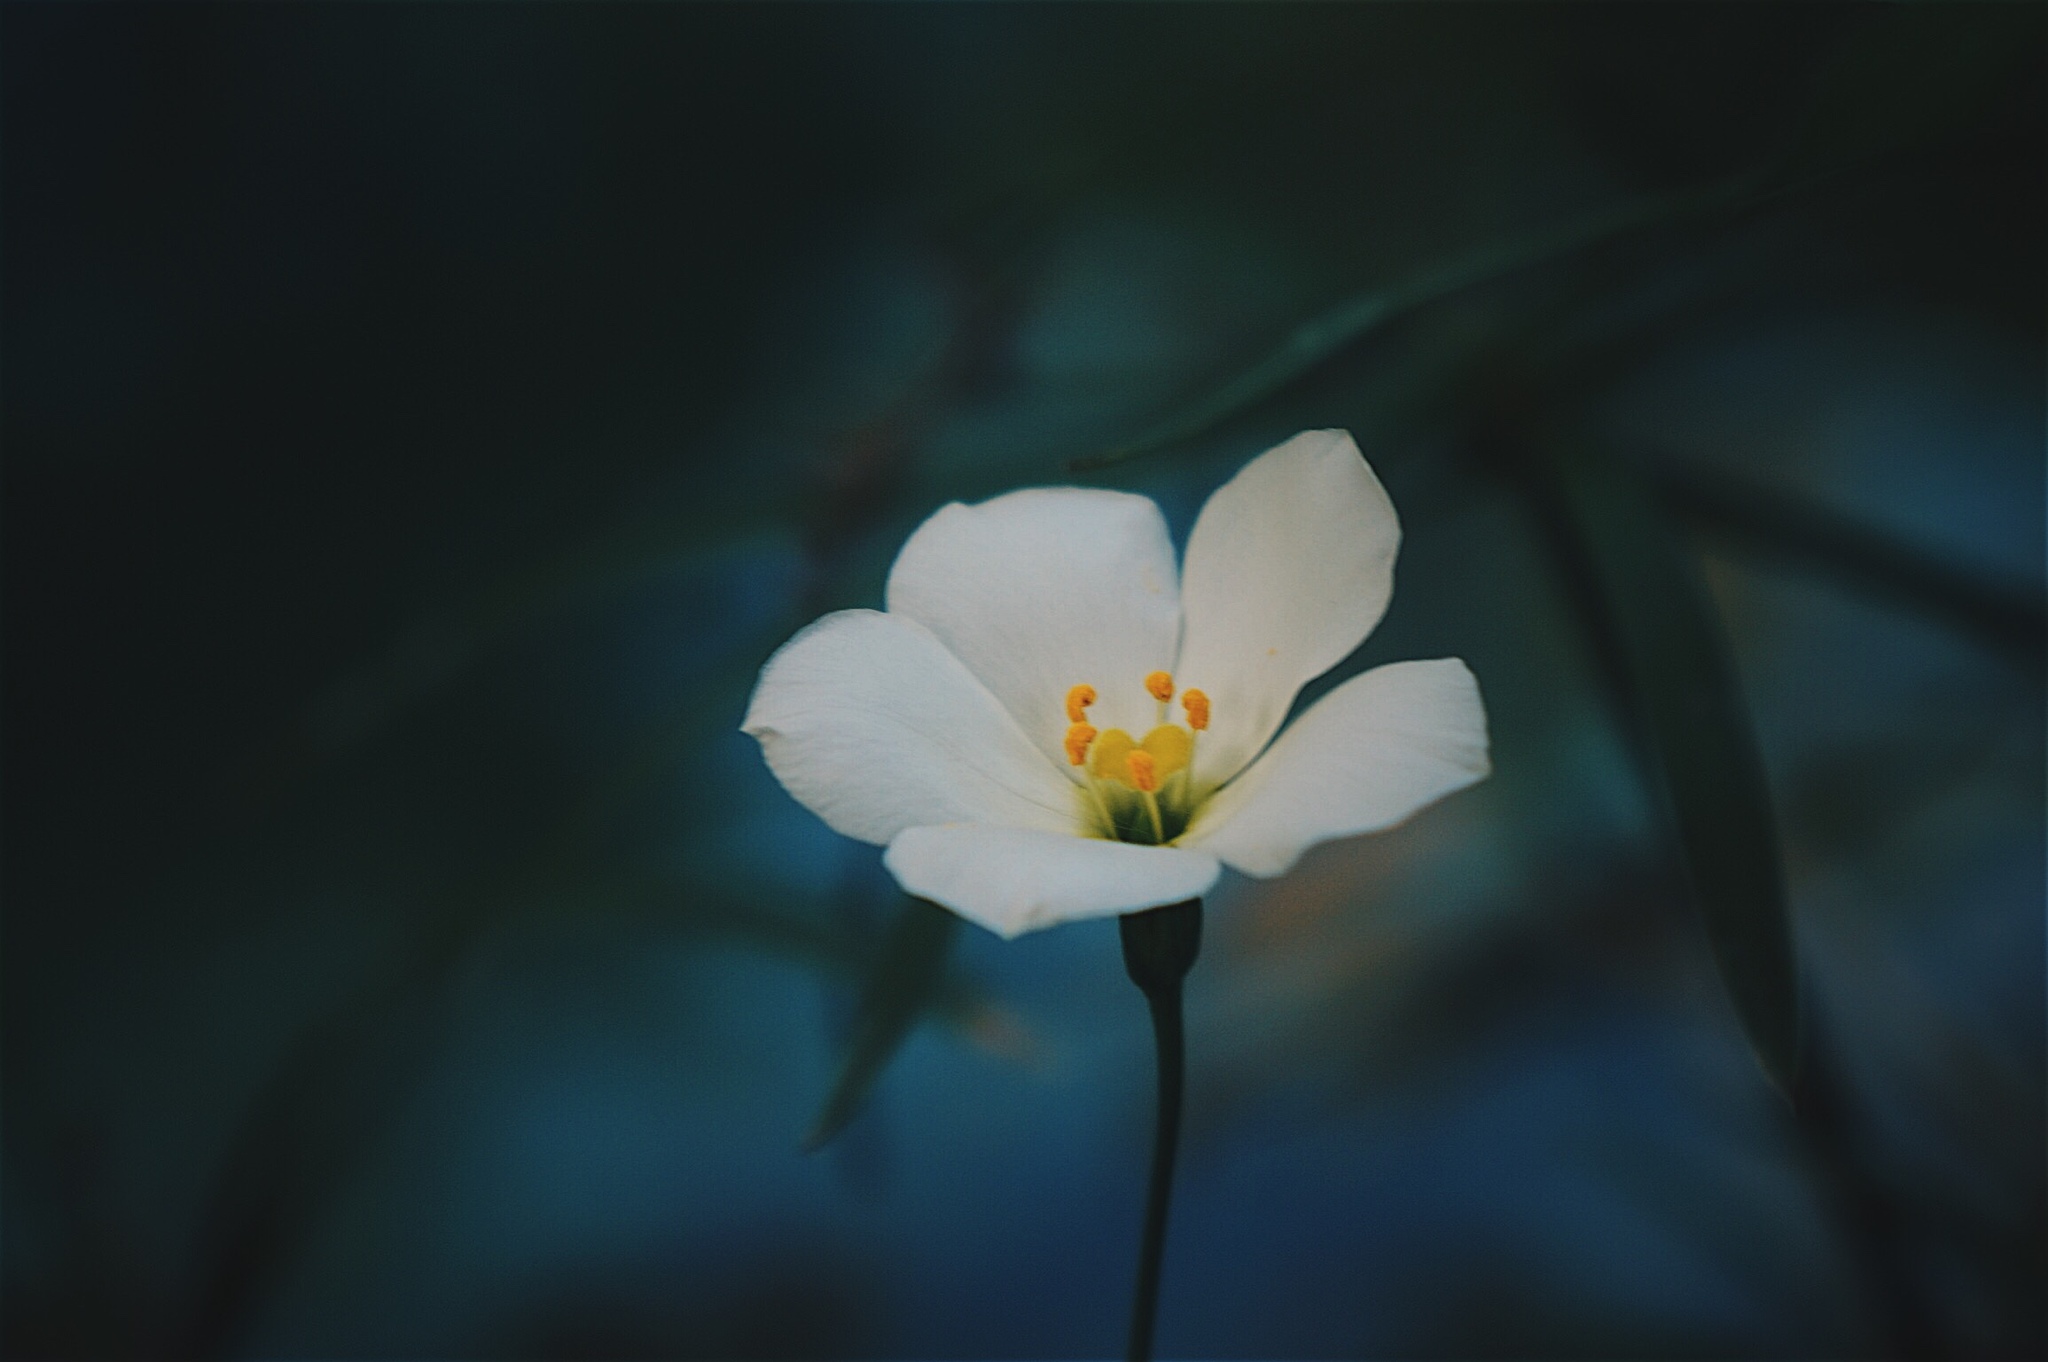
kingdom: Plantae
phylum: Tracheophyta
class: Magnoliopsida
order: Gentianales
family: Gentianaceae
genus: Eustoma
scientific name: Eustoma exaltatum
